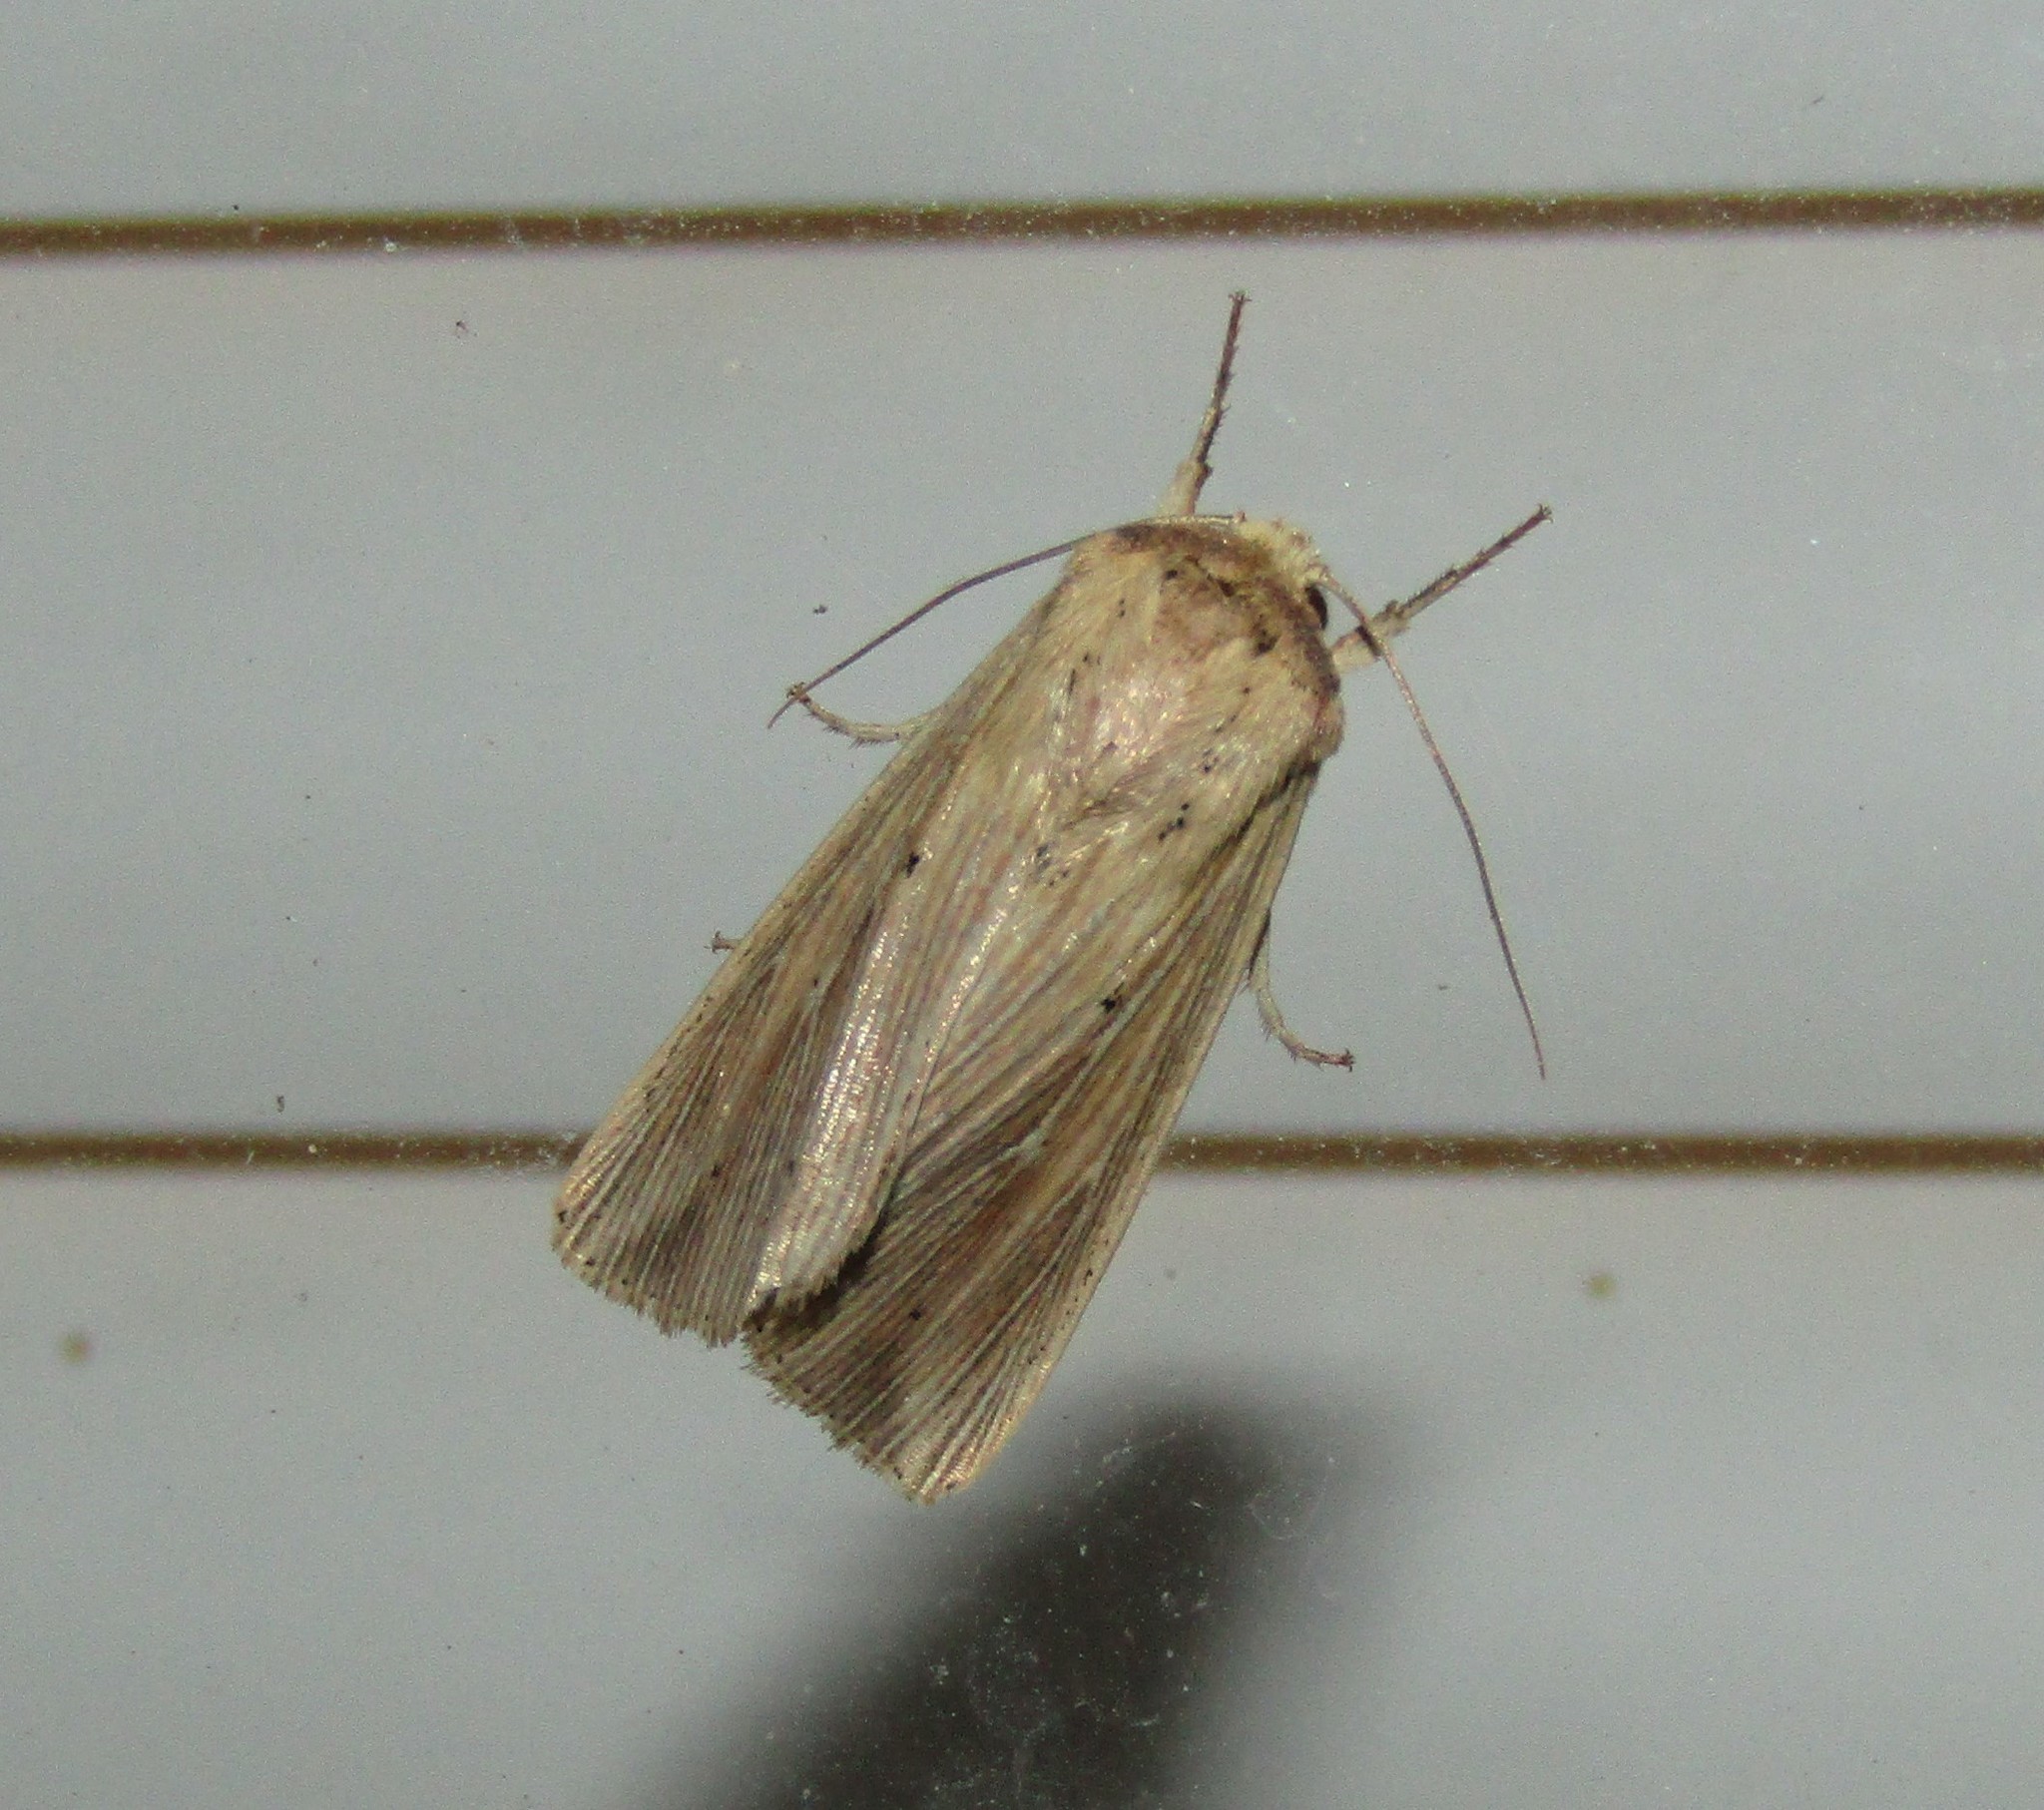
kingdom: Animalia
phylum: Arthropoda
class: Insecta
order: Lepidoptera
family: Noctuidae
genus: Leucania
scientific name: Leucania adjuta
